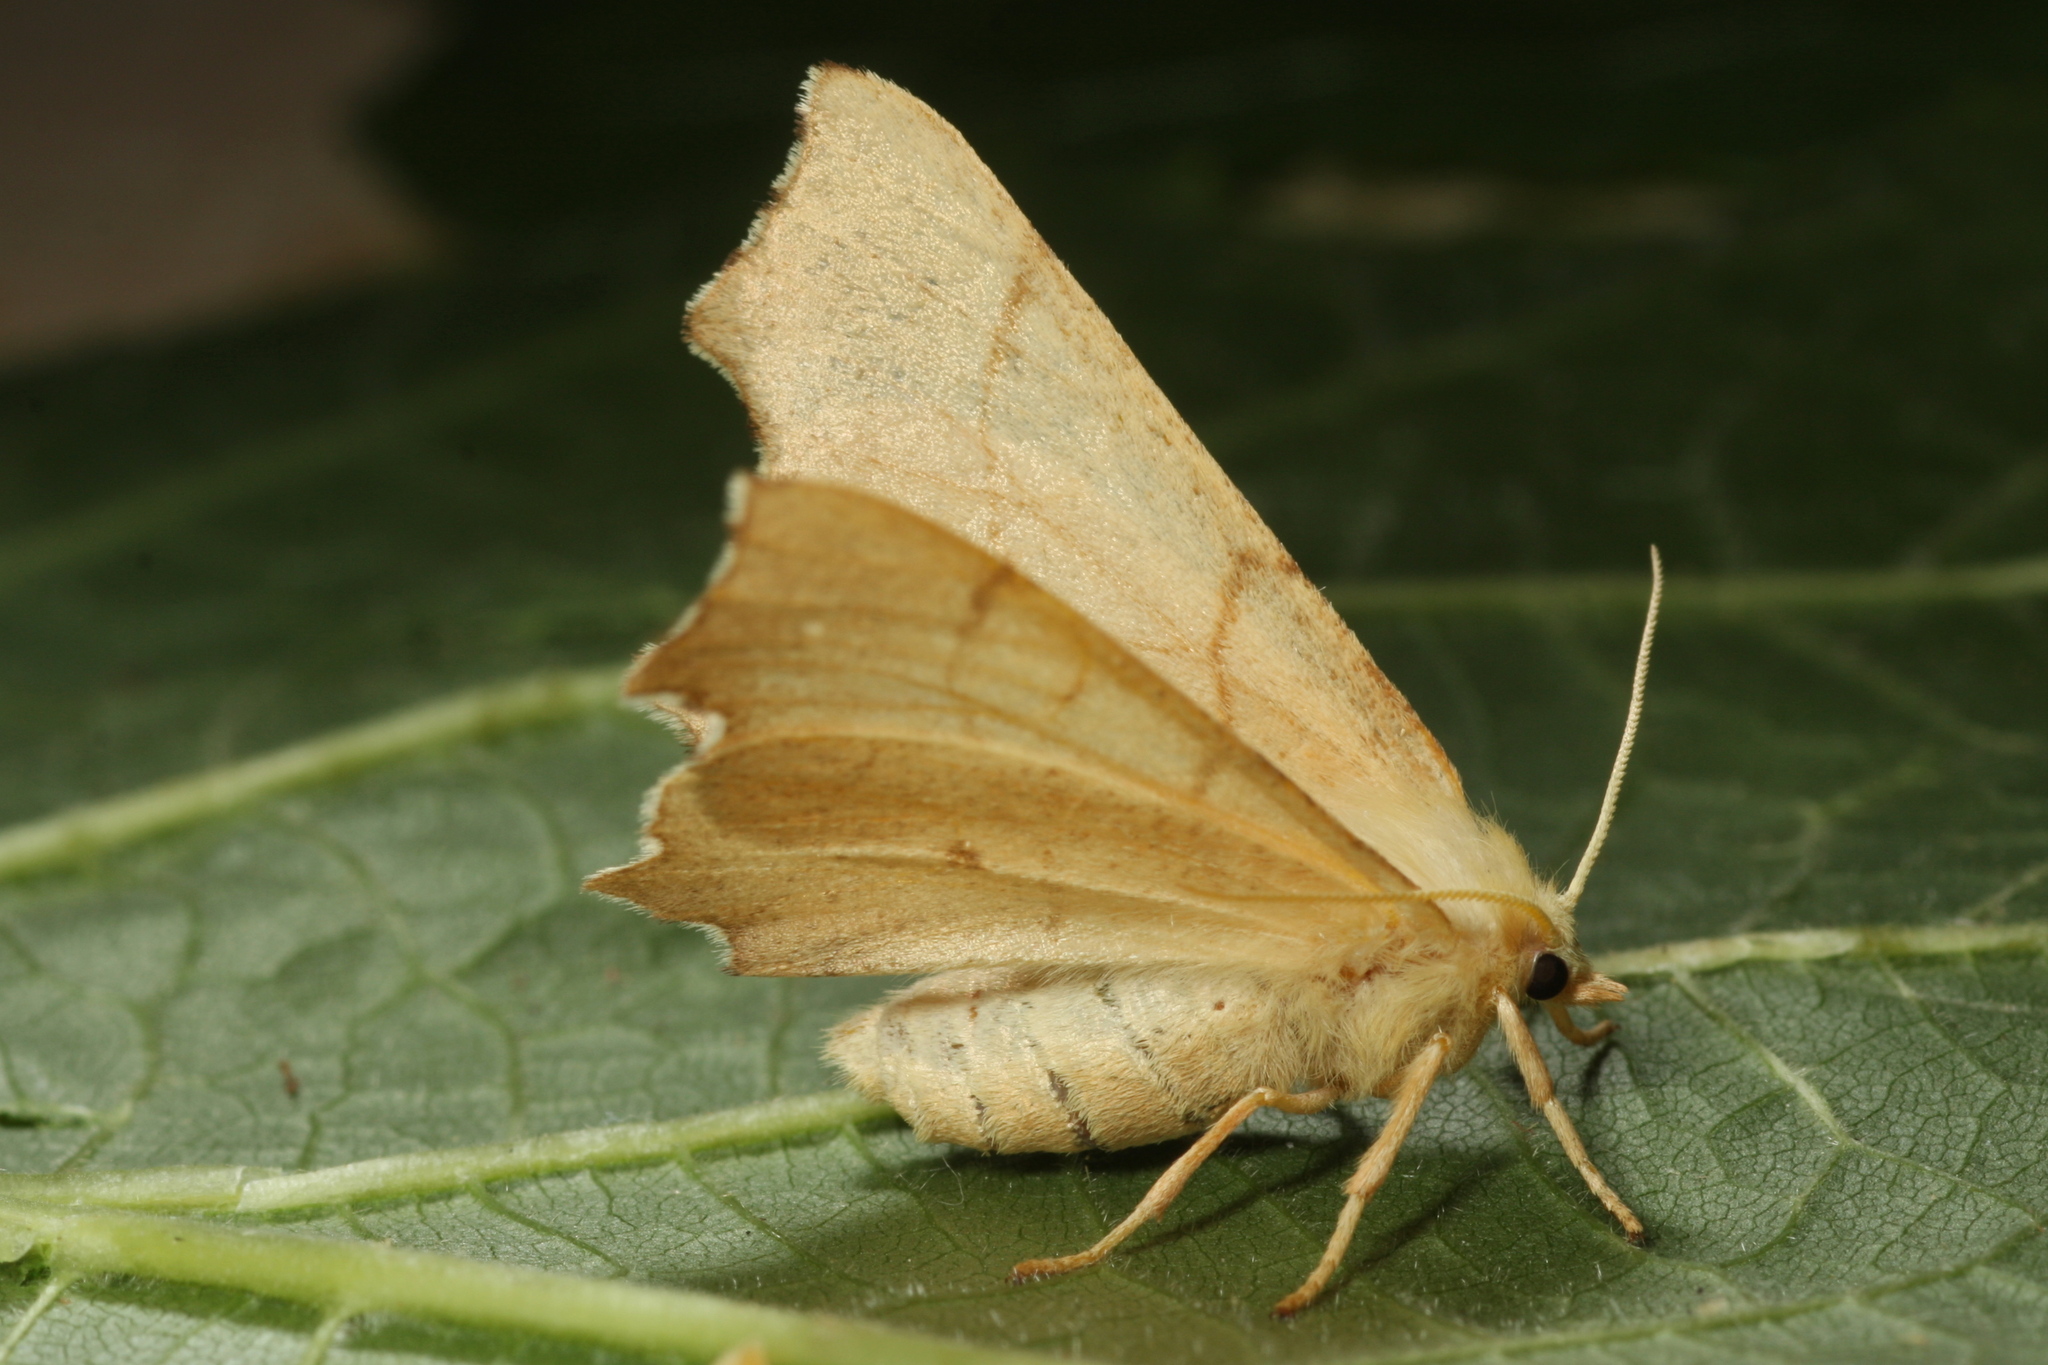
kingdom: Animalia
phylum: Arthropoda
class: Insecta
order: Lepidoptera
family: Geometridae
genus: Ennomos
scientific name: Ennomos erosaria
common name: September thorn
